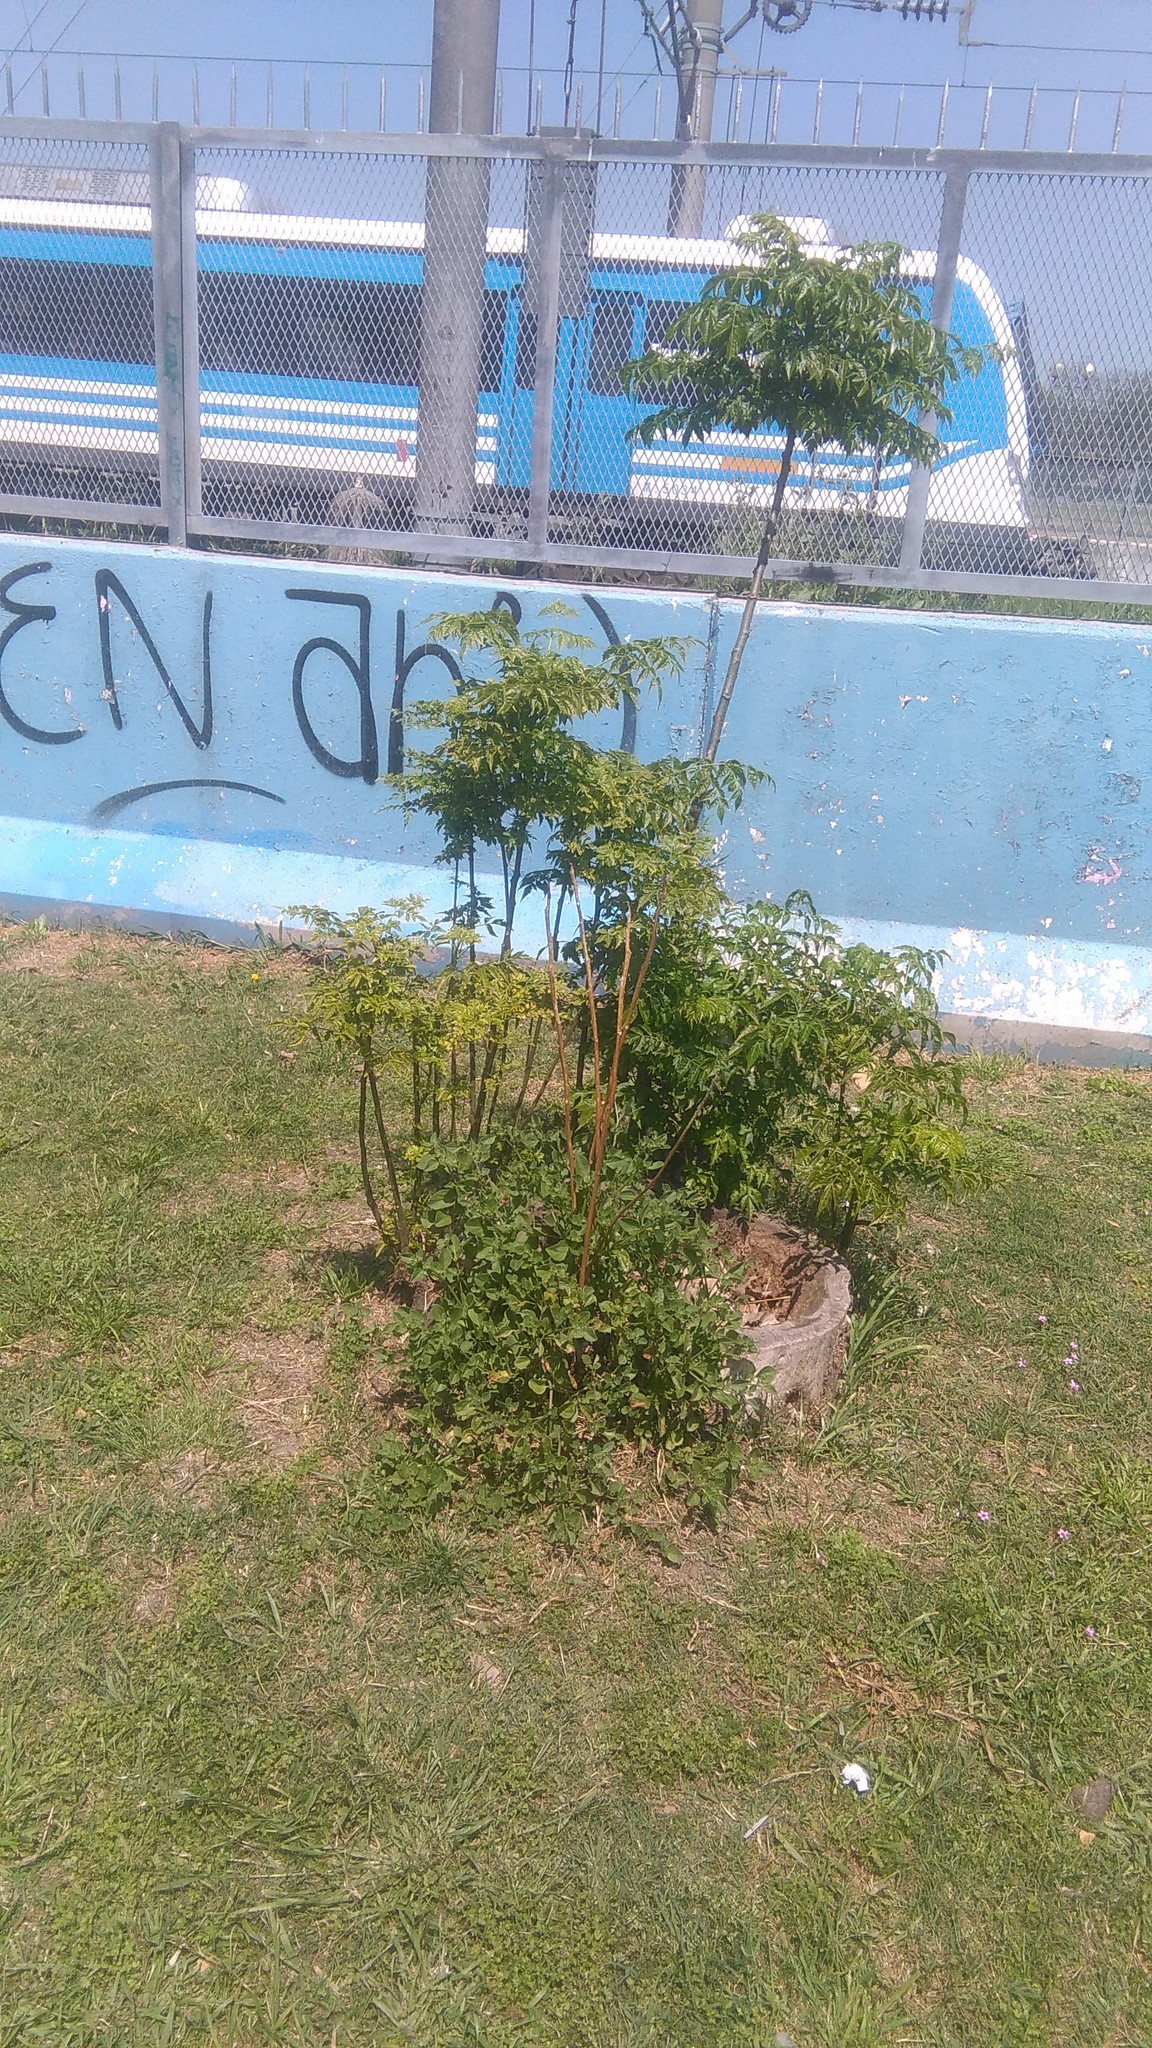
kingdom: Plantae
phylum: Tracheophyta
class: Magnoliopsida
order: Solanales
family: Solanaceae
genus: Salpichroa
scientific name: Salpichroa origanifolia
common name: Lily-of-the-valley-vine
